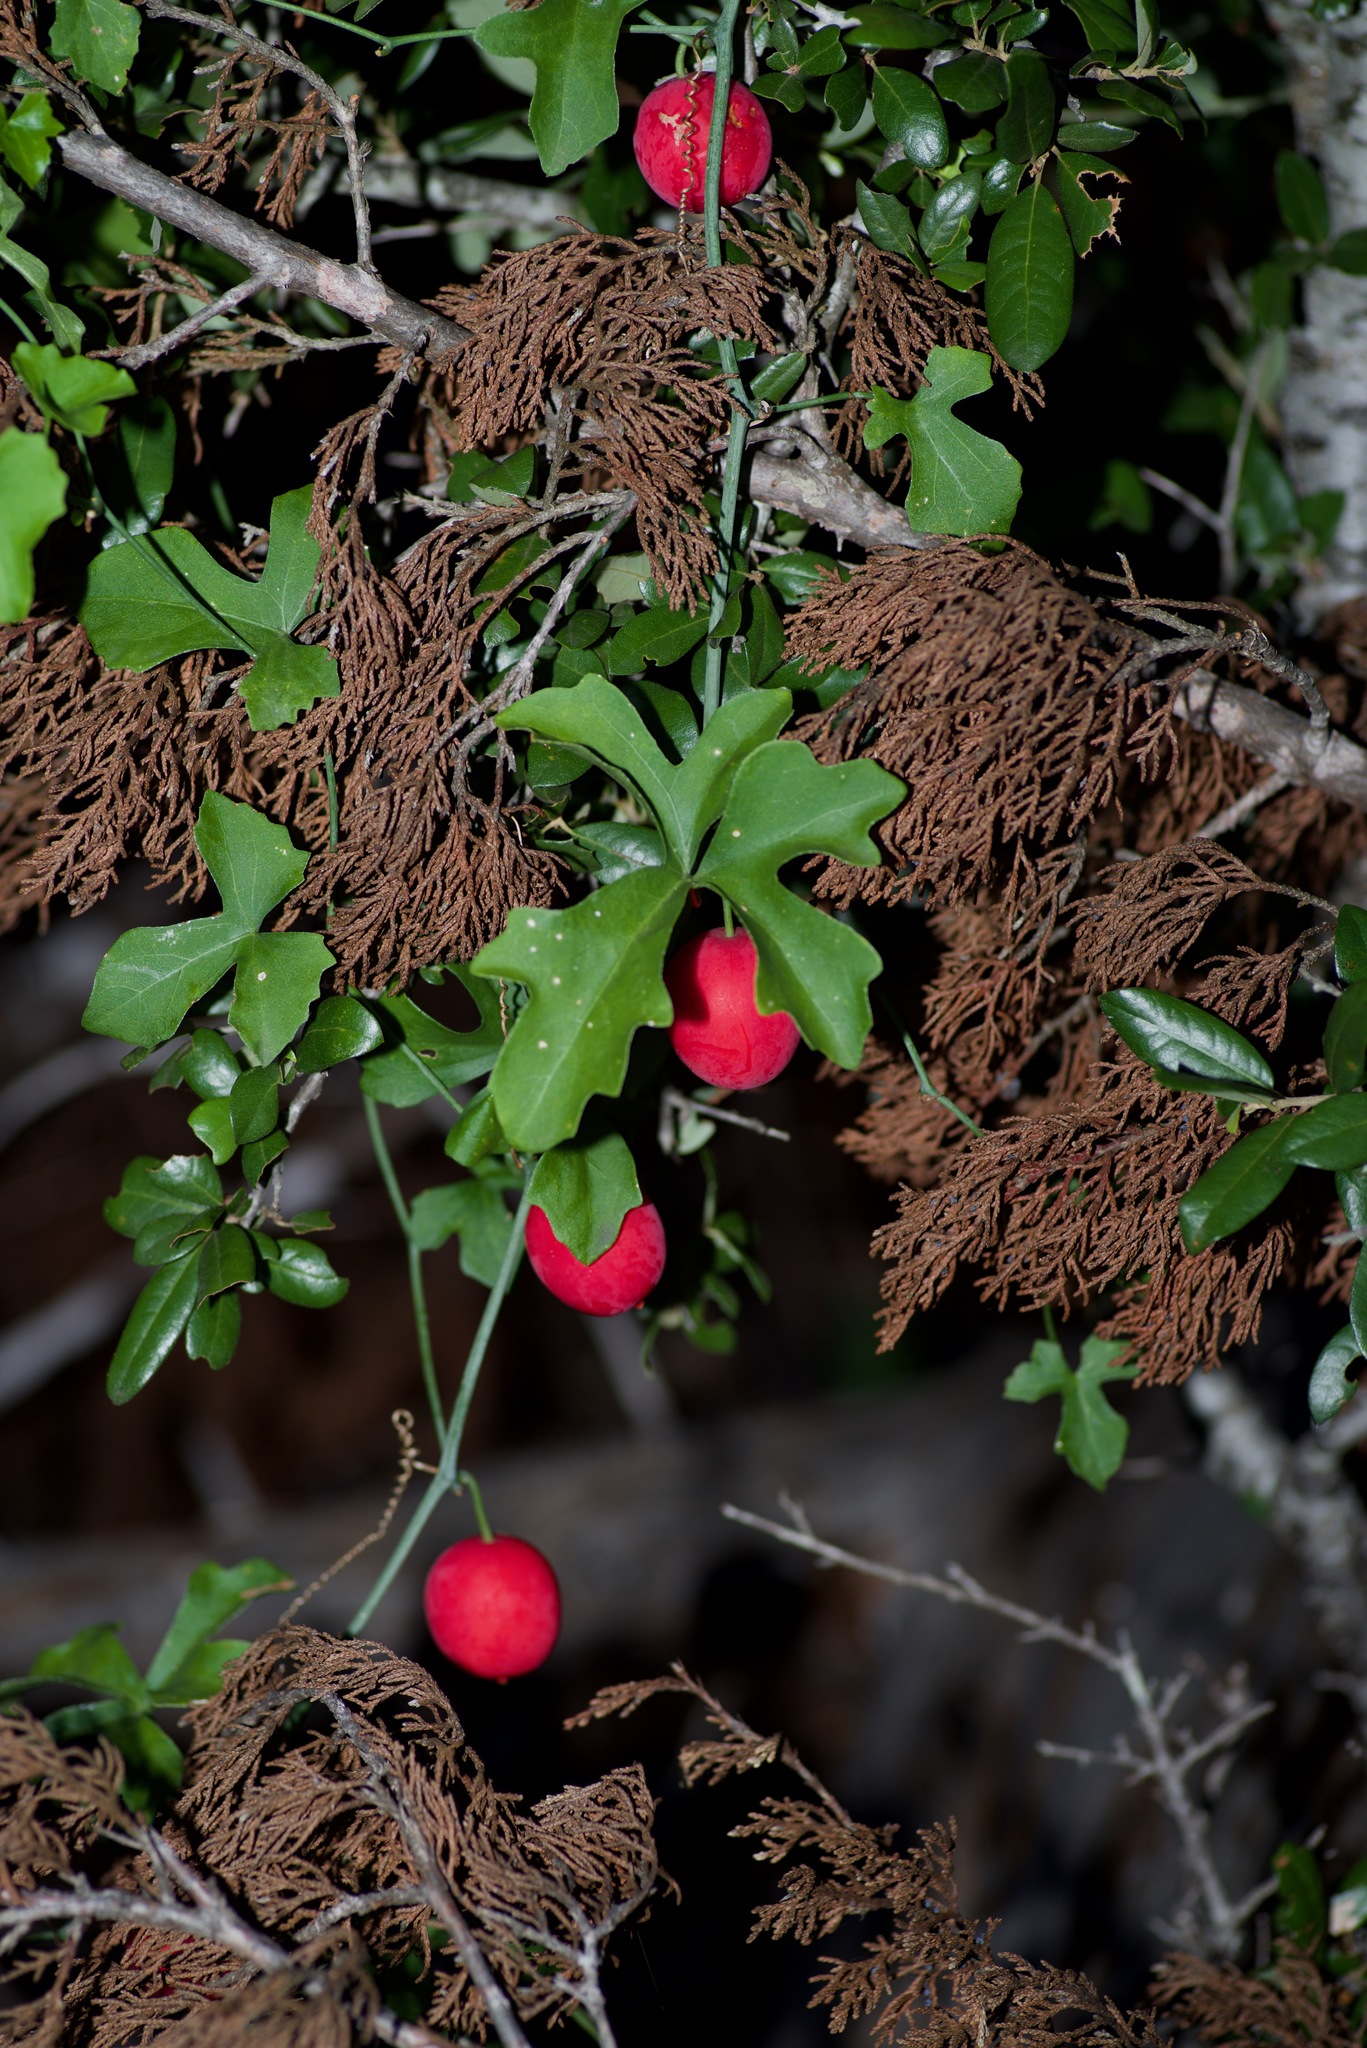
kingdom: Plantae
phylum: Tracheophyta
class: Magnoliopsida
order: Cucurbitales
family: Cucurbitaceae
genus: Ibervillea
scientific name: Ibervillea lindheimeri
